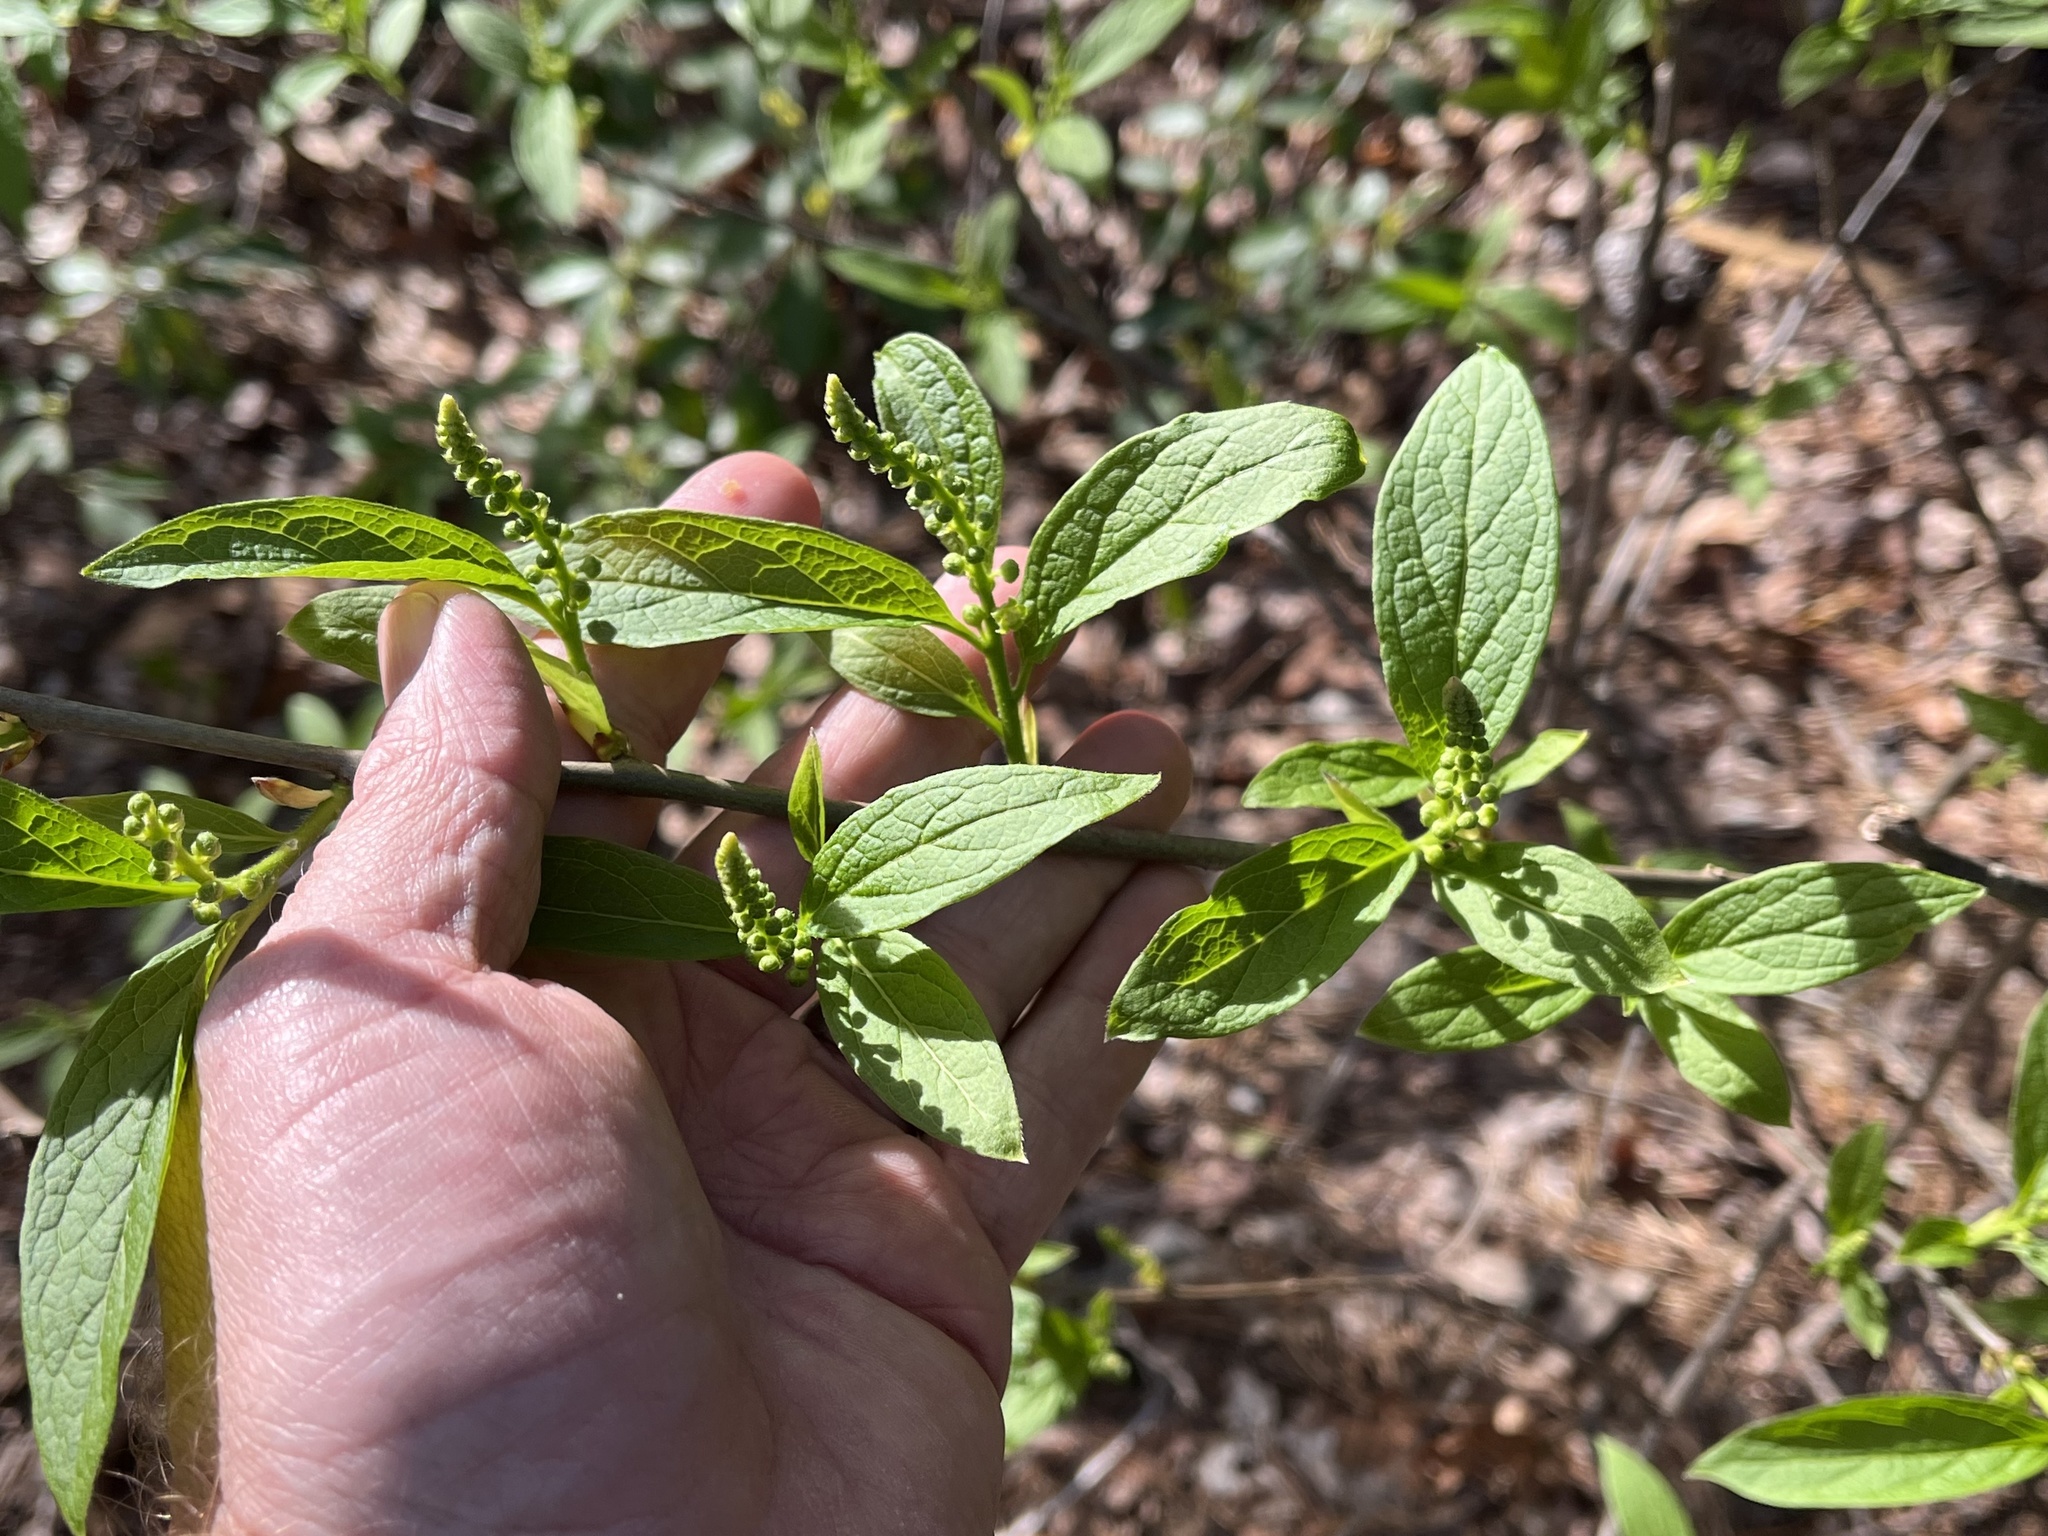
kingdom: Plantae
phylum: Tracheophyta
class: Magnoliopsida
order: Santalales
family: Cervantesiaceae
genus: Pyrularia
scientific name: Pyrularia pubera
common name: Oilnut
